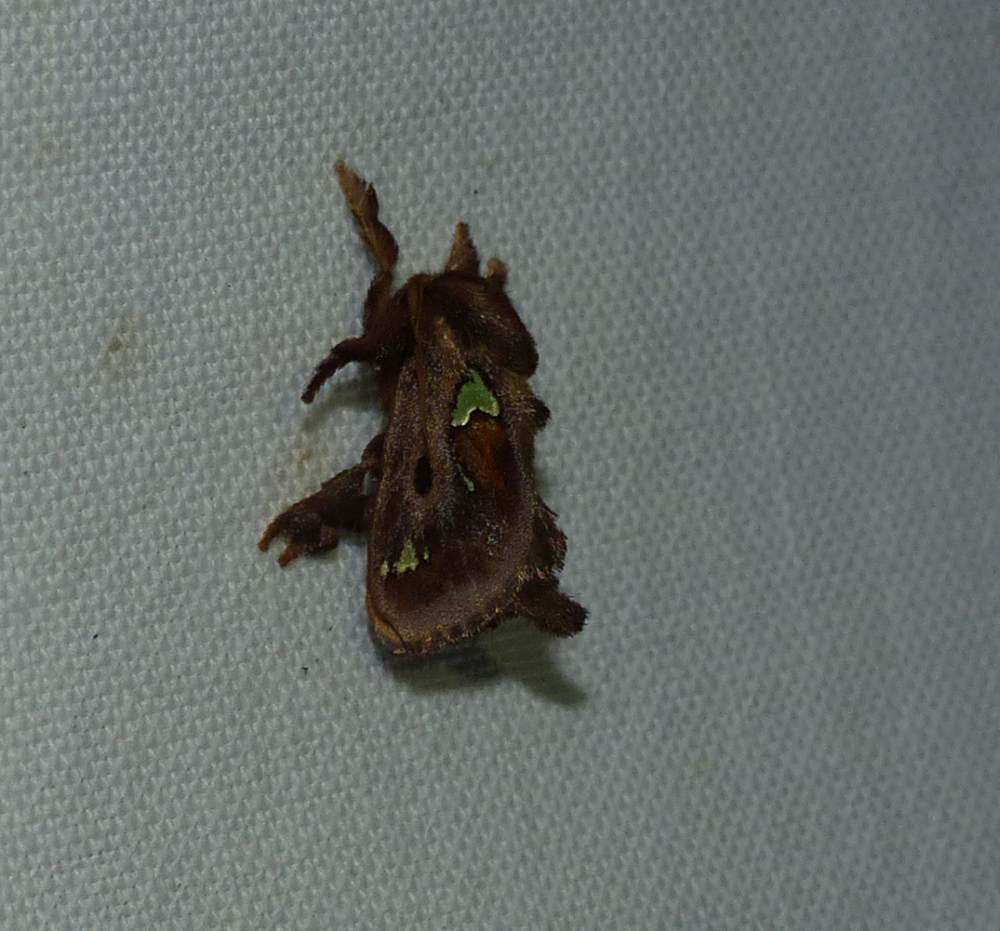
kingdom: Animalia
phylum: Arthropoda
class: Insecta
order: Lepidoptera
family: Limacodidae
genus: Euclea
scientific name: Euclea delphinii
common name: Spiny oak-slug moth
